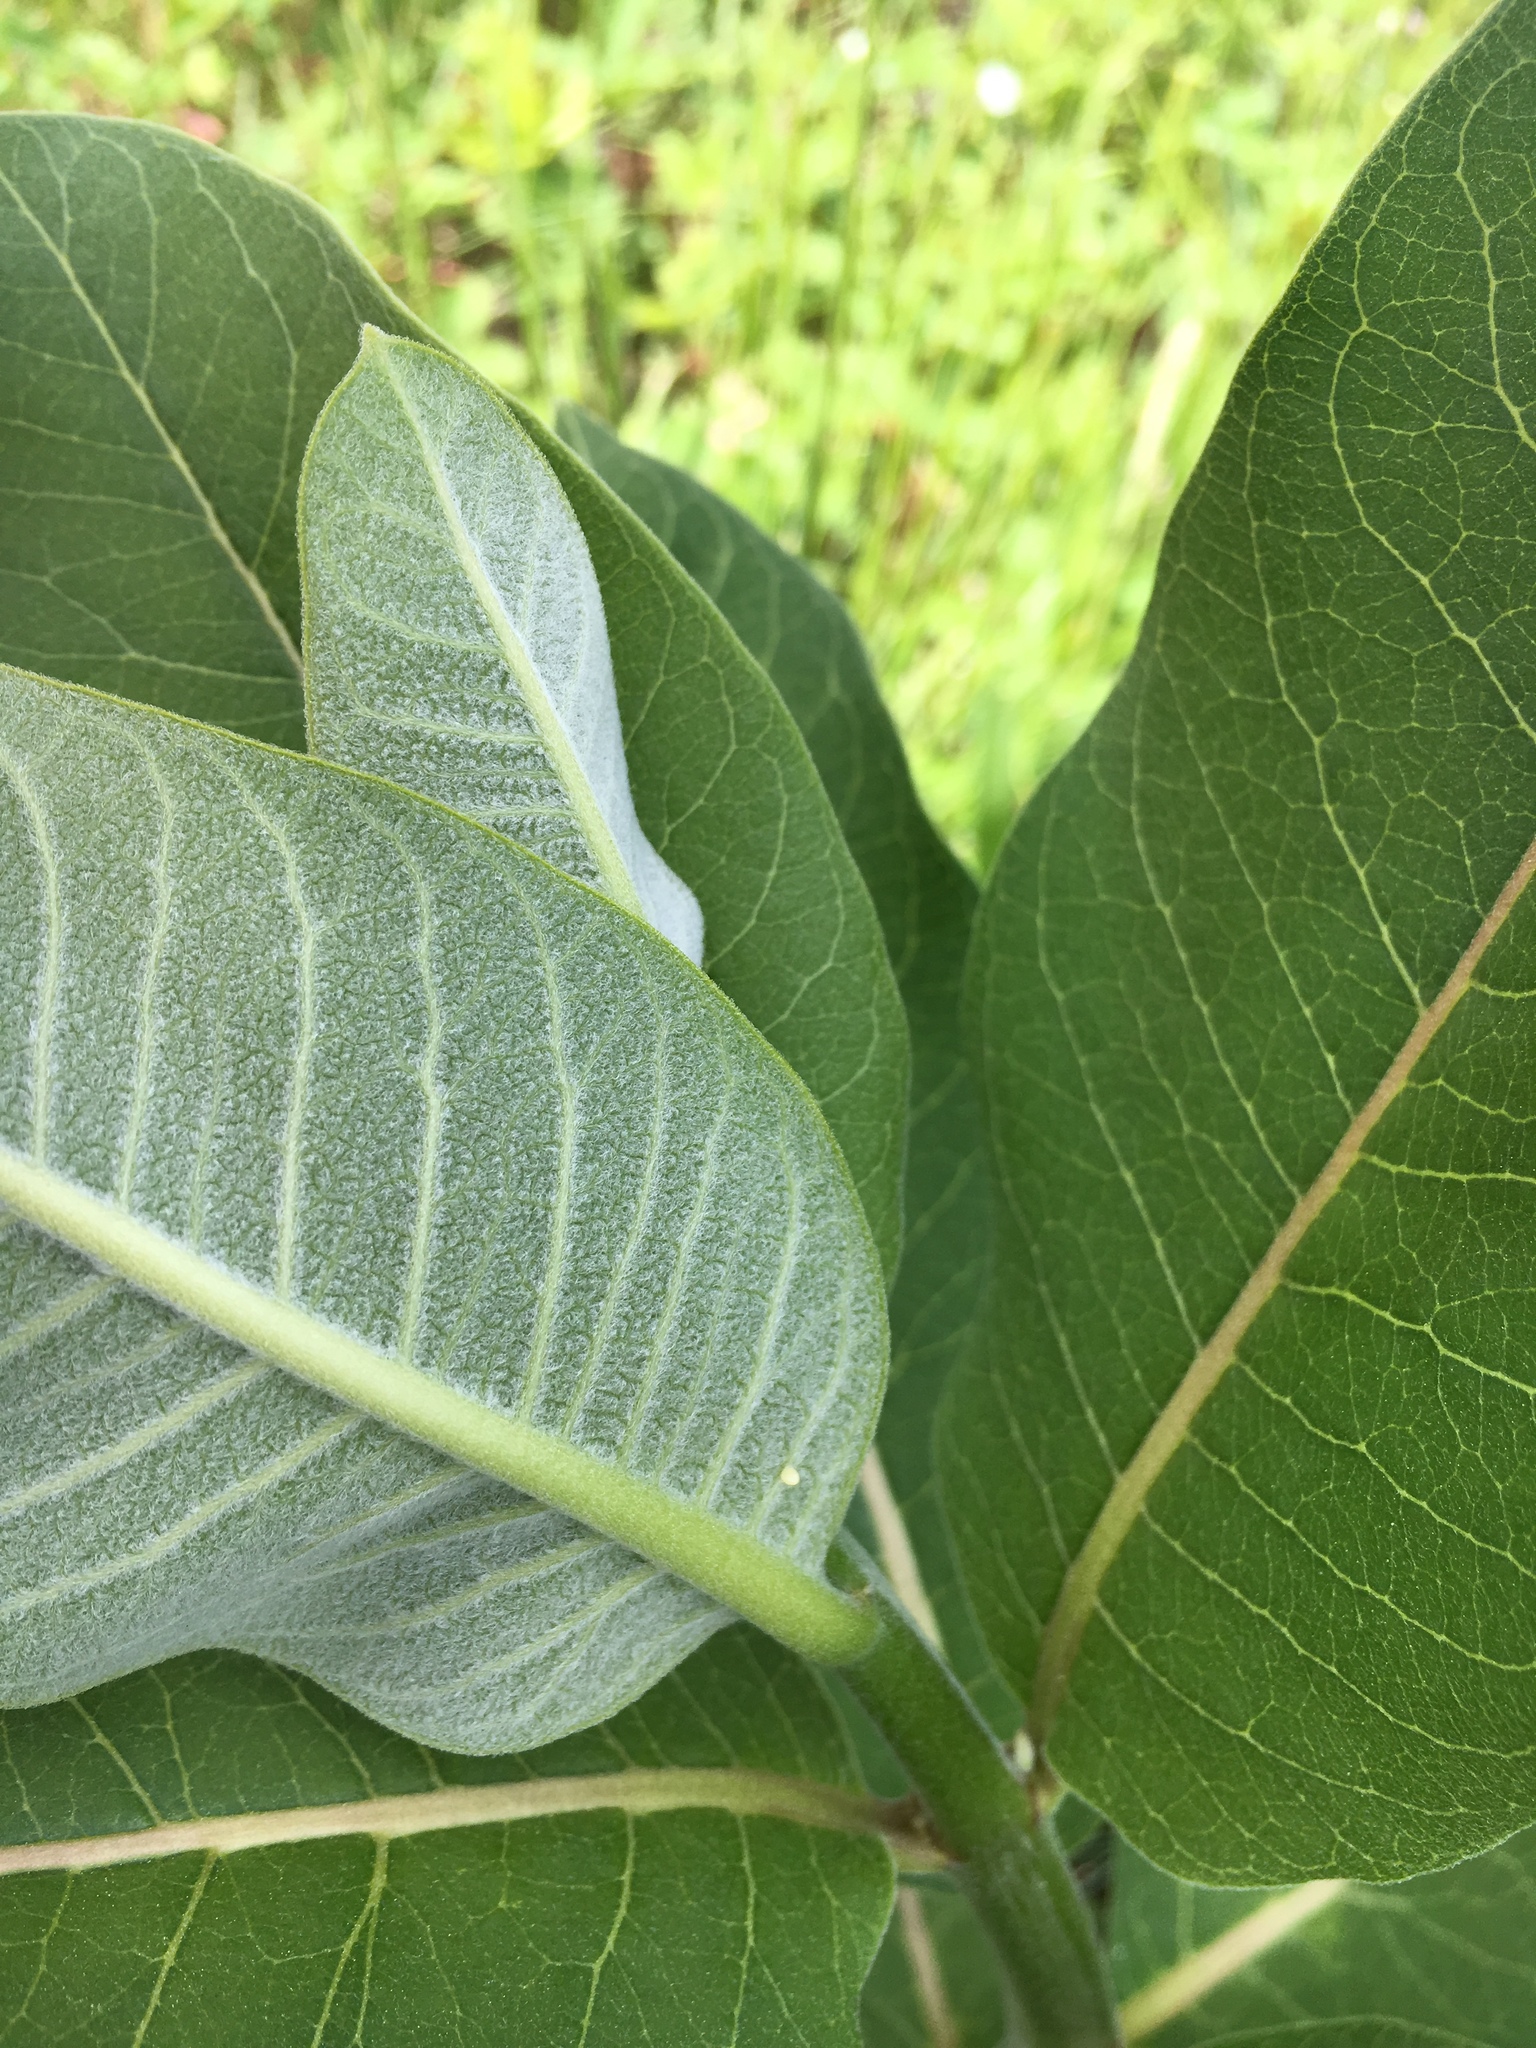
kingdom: Plantae
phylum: Tracheophyta
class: Magnoliopsida
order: Gentianales
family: Apocynaceae
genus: Asclepias
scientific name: Asclepias syriaca
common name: Common milkweed
